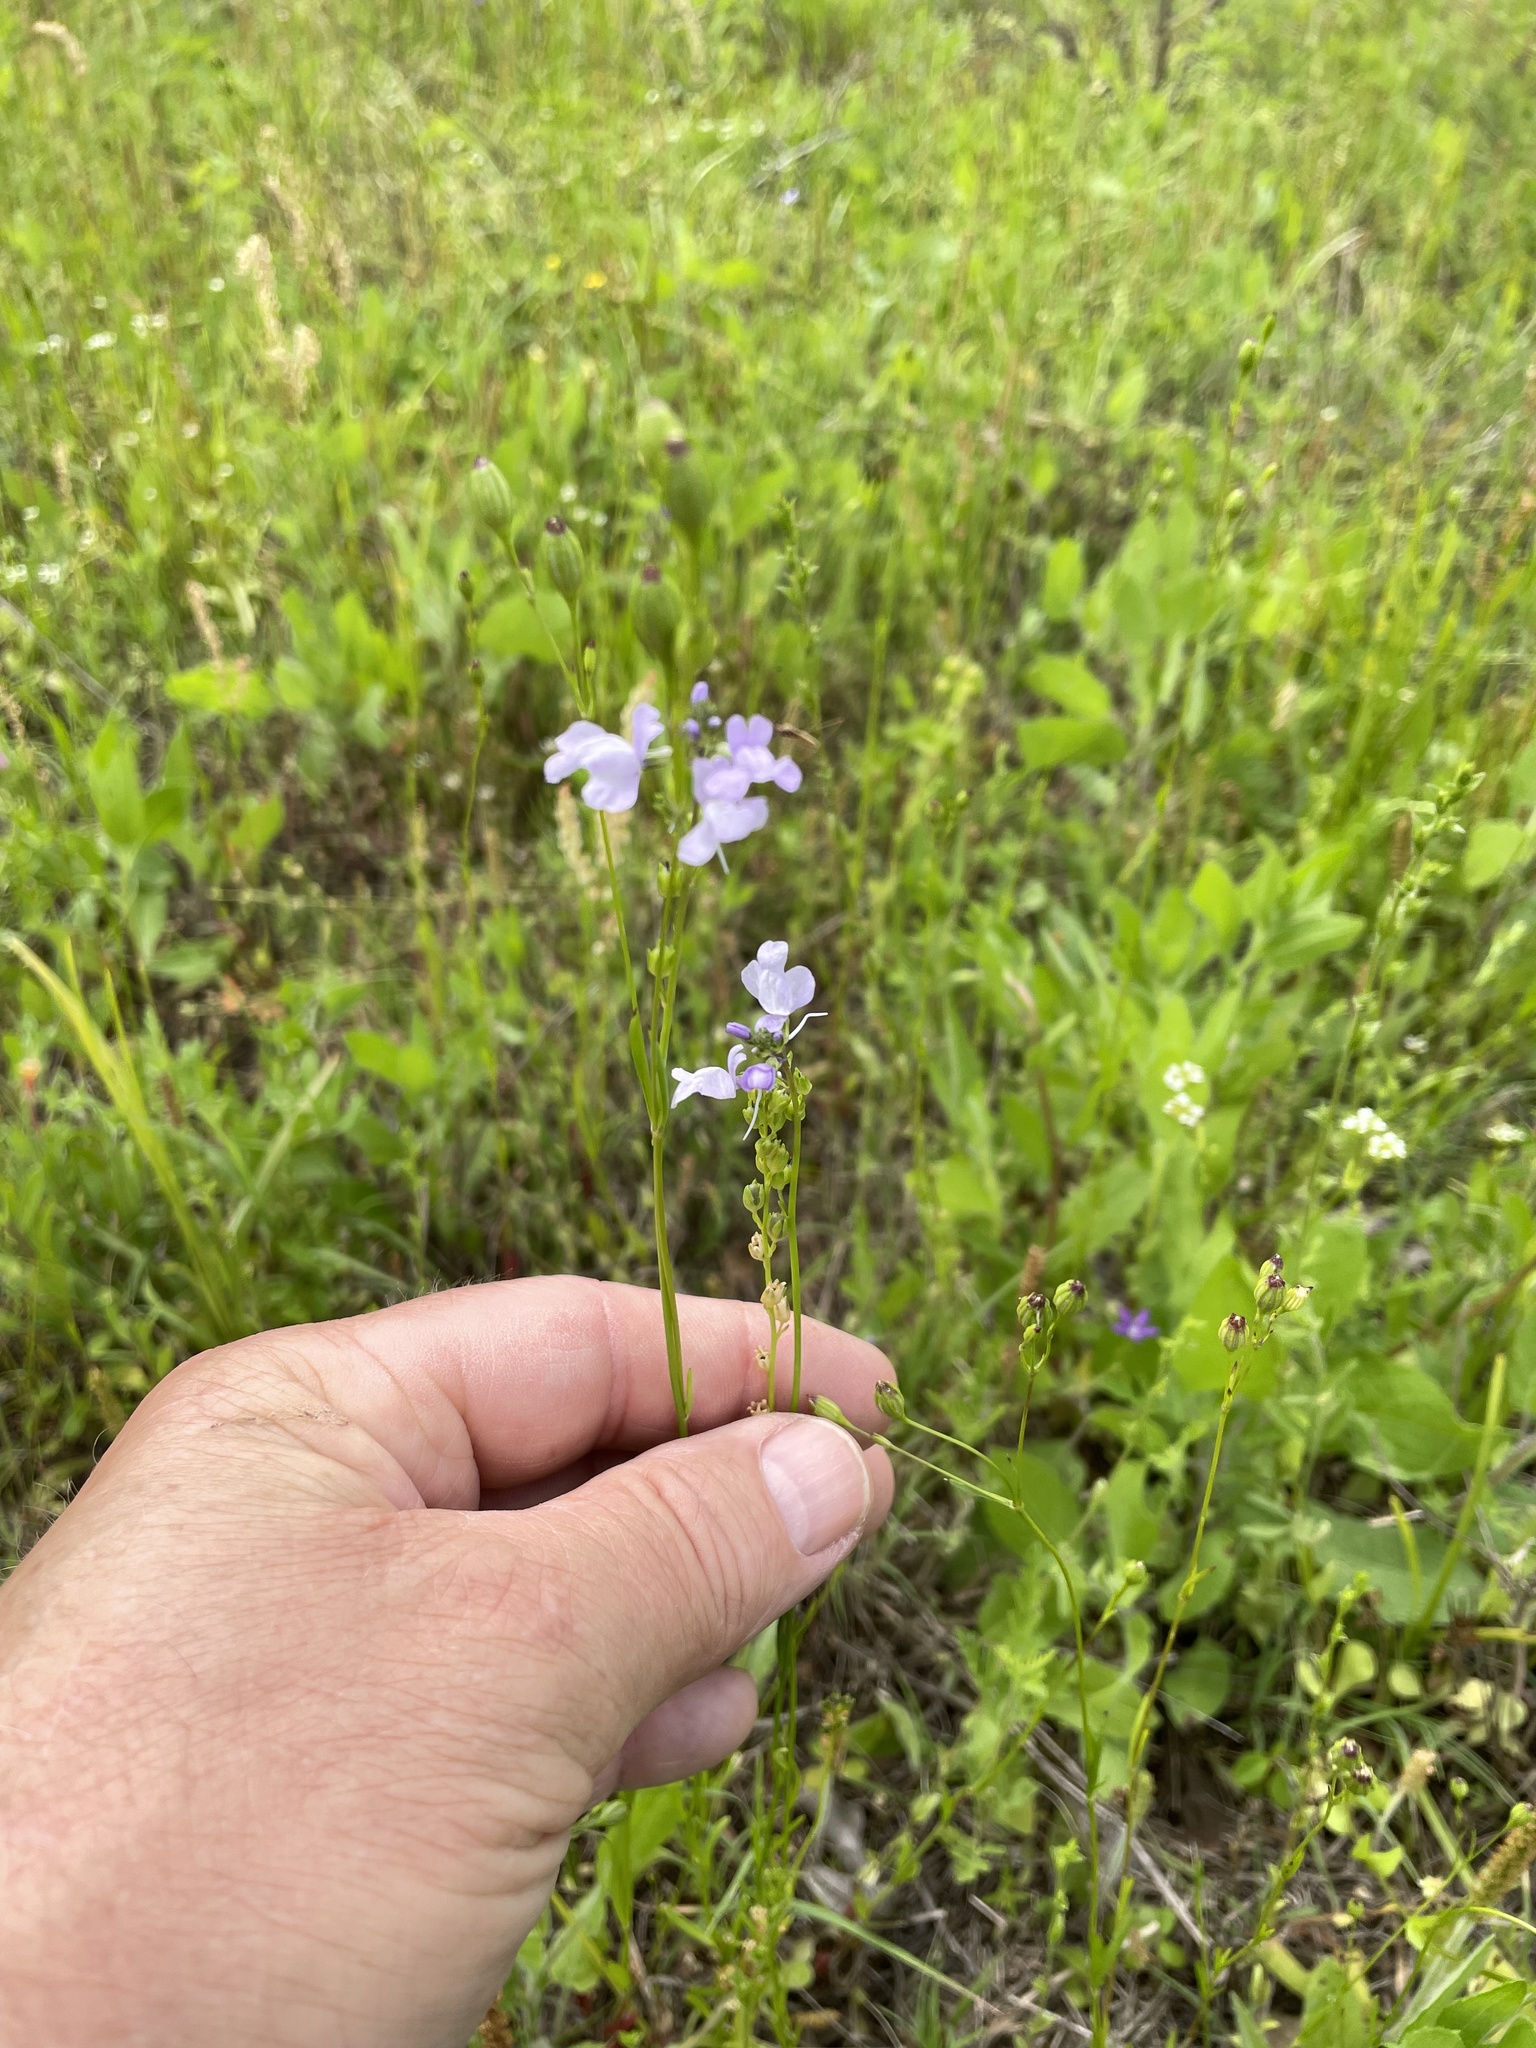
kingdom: Plantae
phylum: Tracheophyta
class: Magnoliopsida
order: Lamiales
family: Plantaginaceae
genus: Nuttallanthus
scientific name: Nuttallanthus texanus
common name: Texas toadflax
